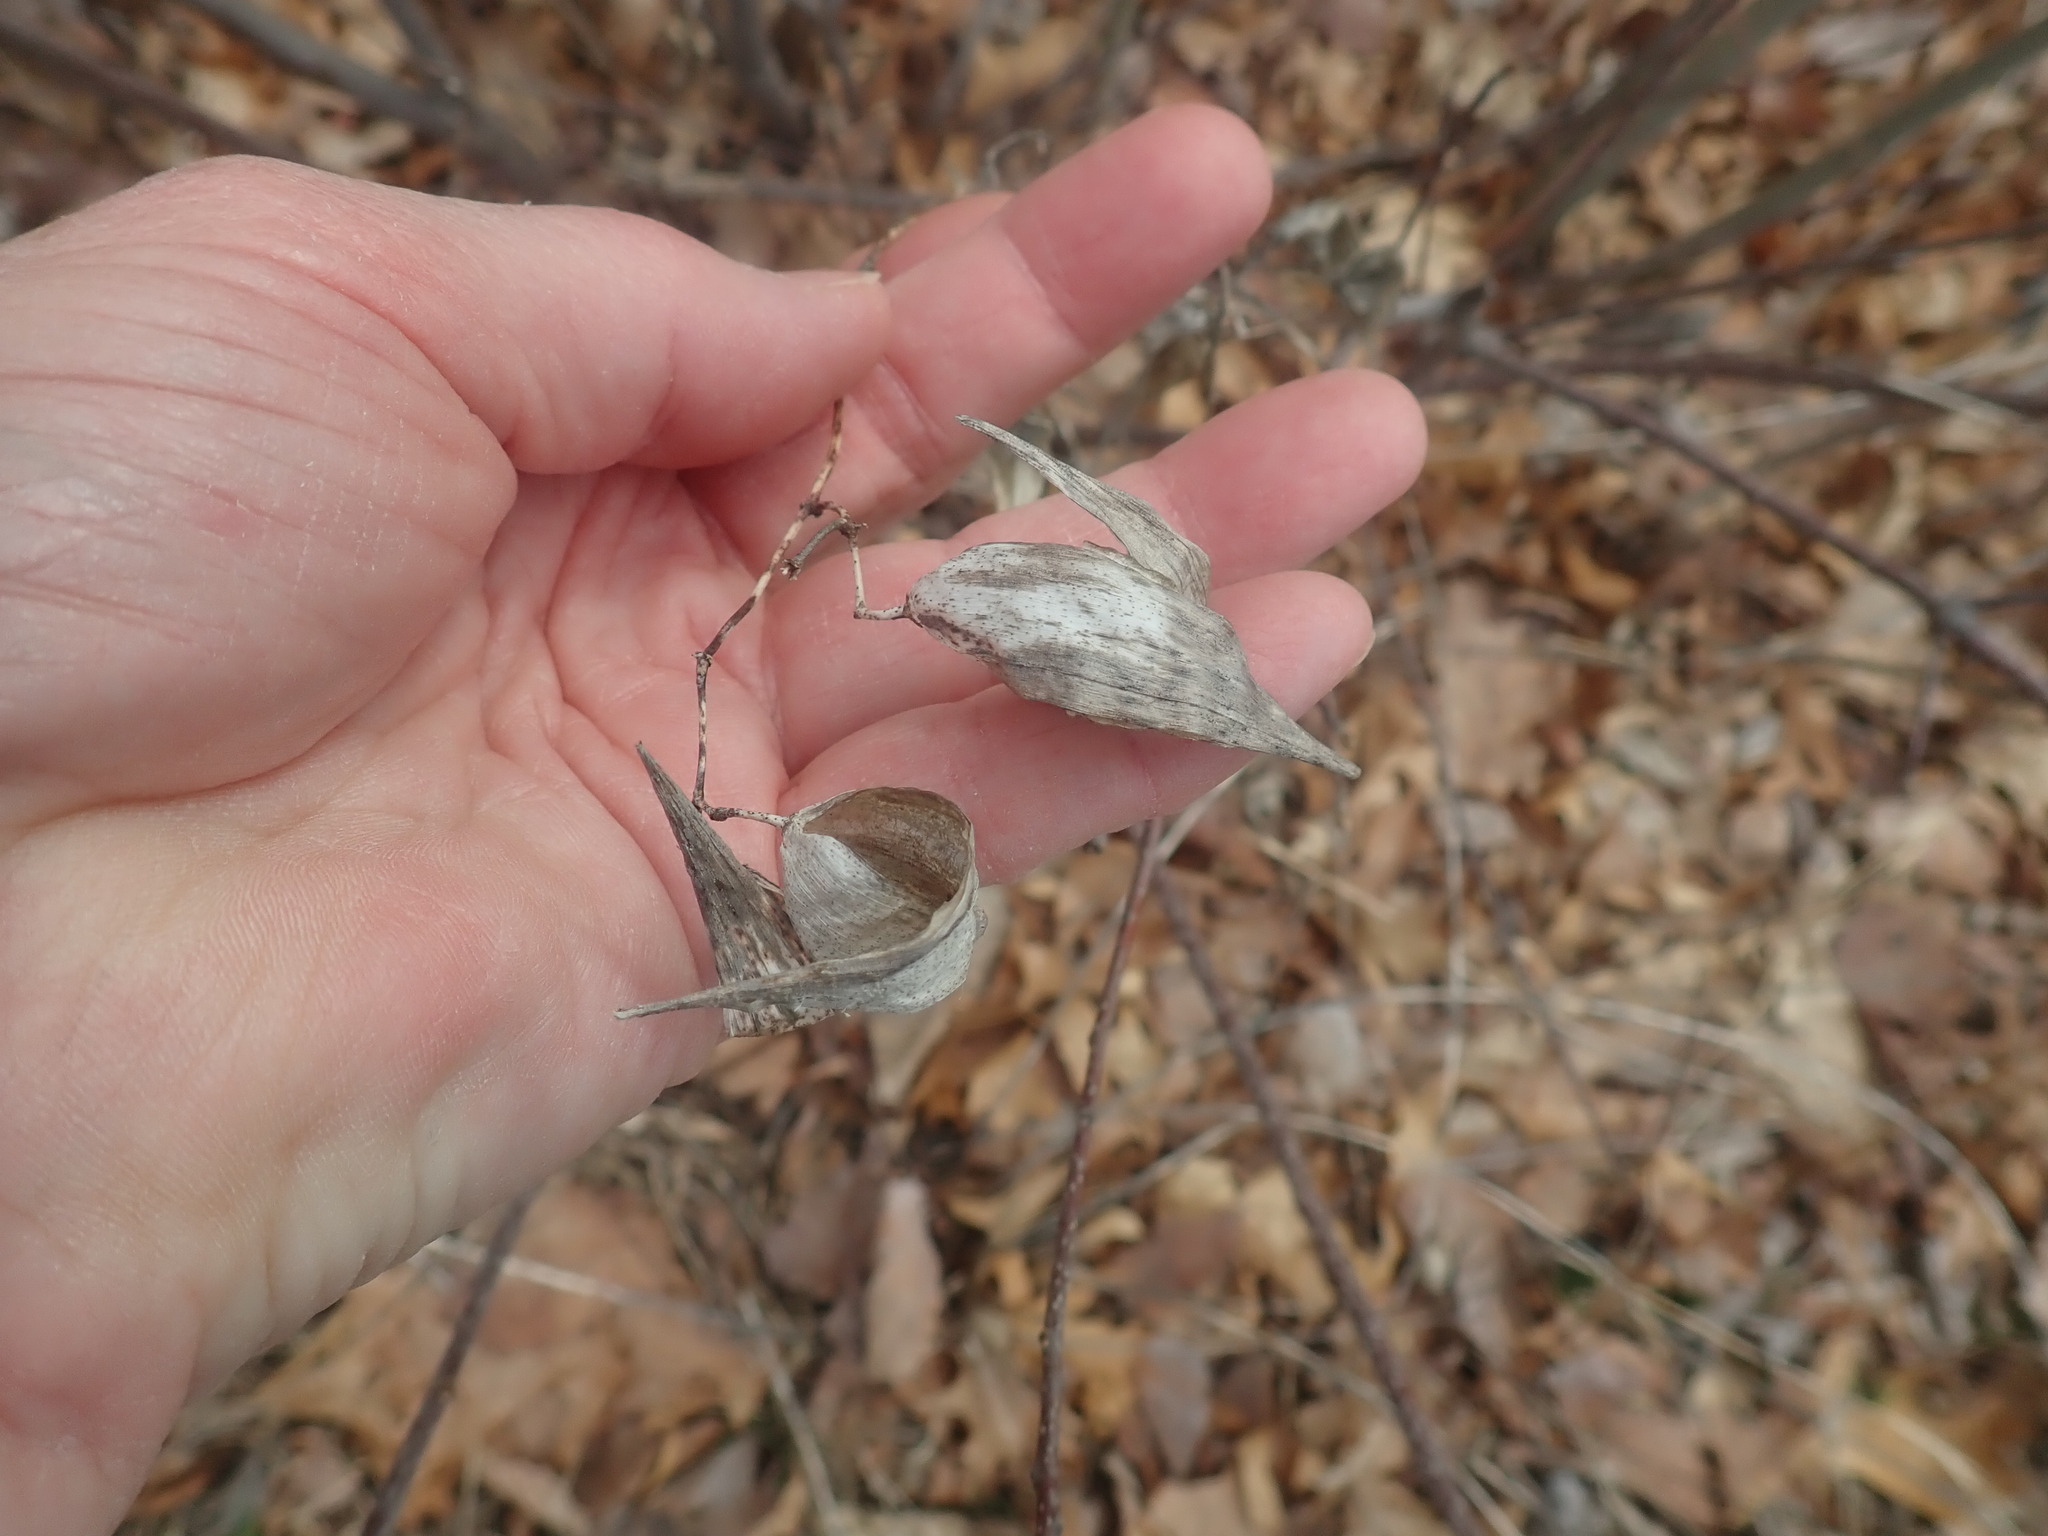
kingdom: Plantae
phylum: Tracheophyta
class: Magnoliopsida
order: Gentianales
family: Apocynaceae
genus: Vincetoxicum
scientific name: Vincetoxicum
